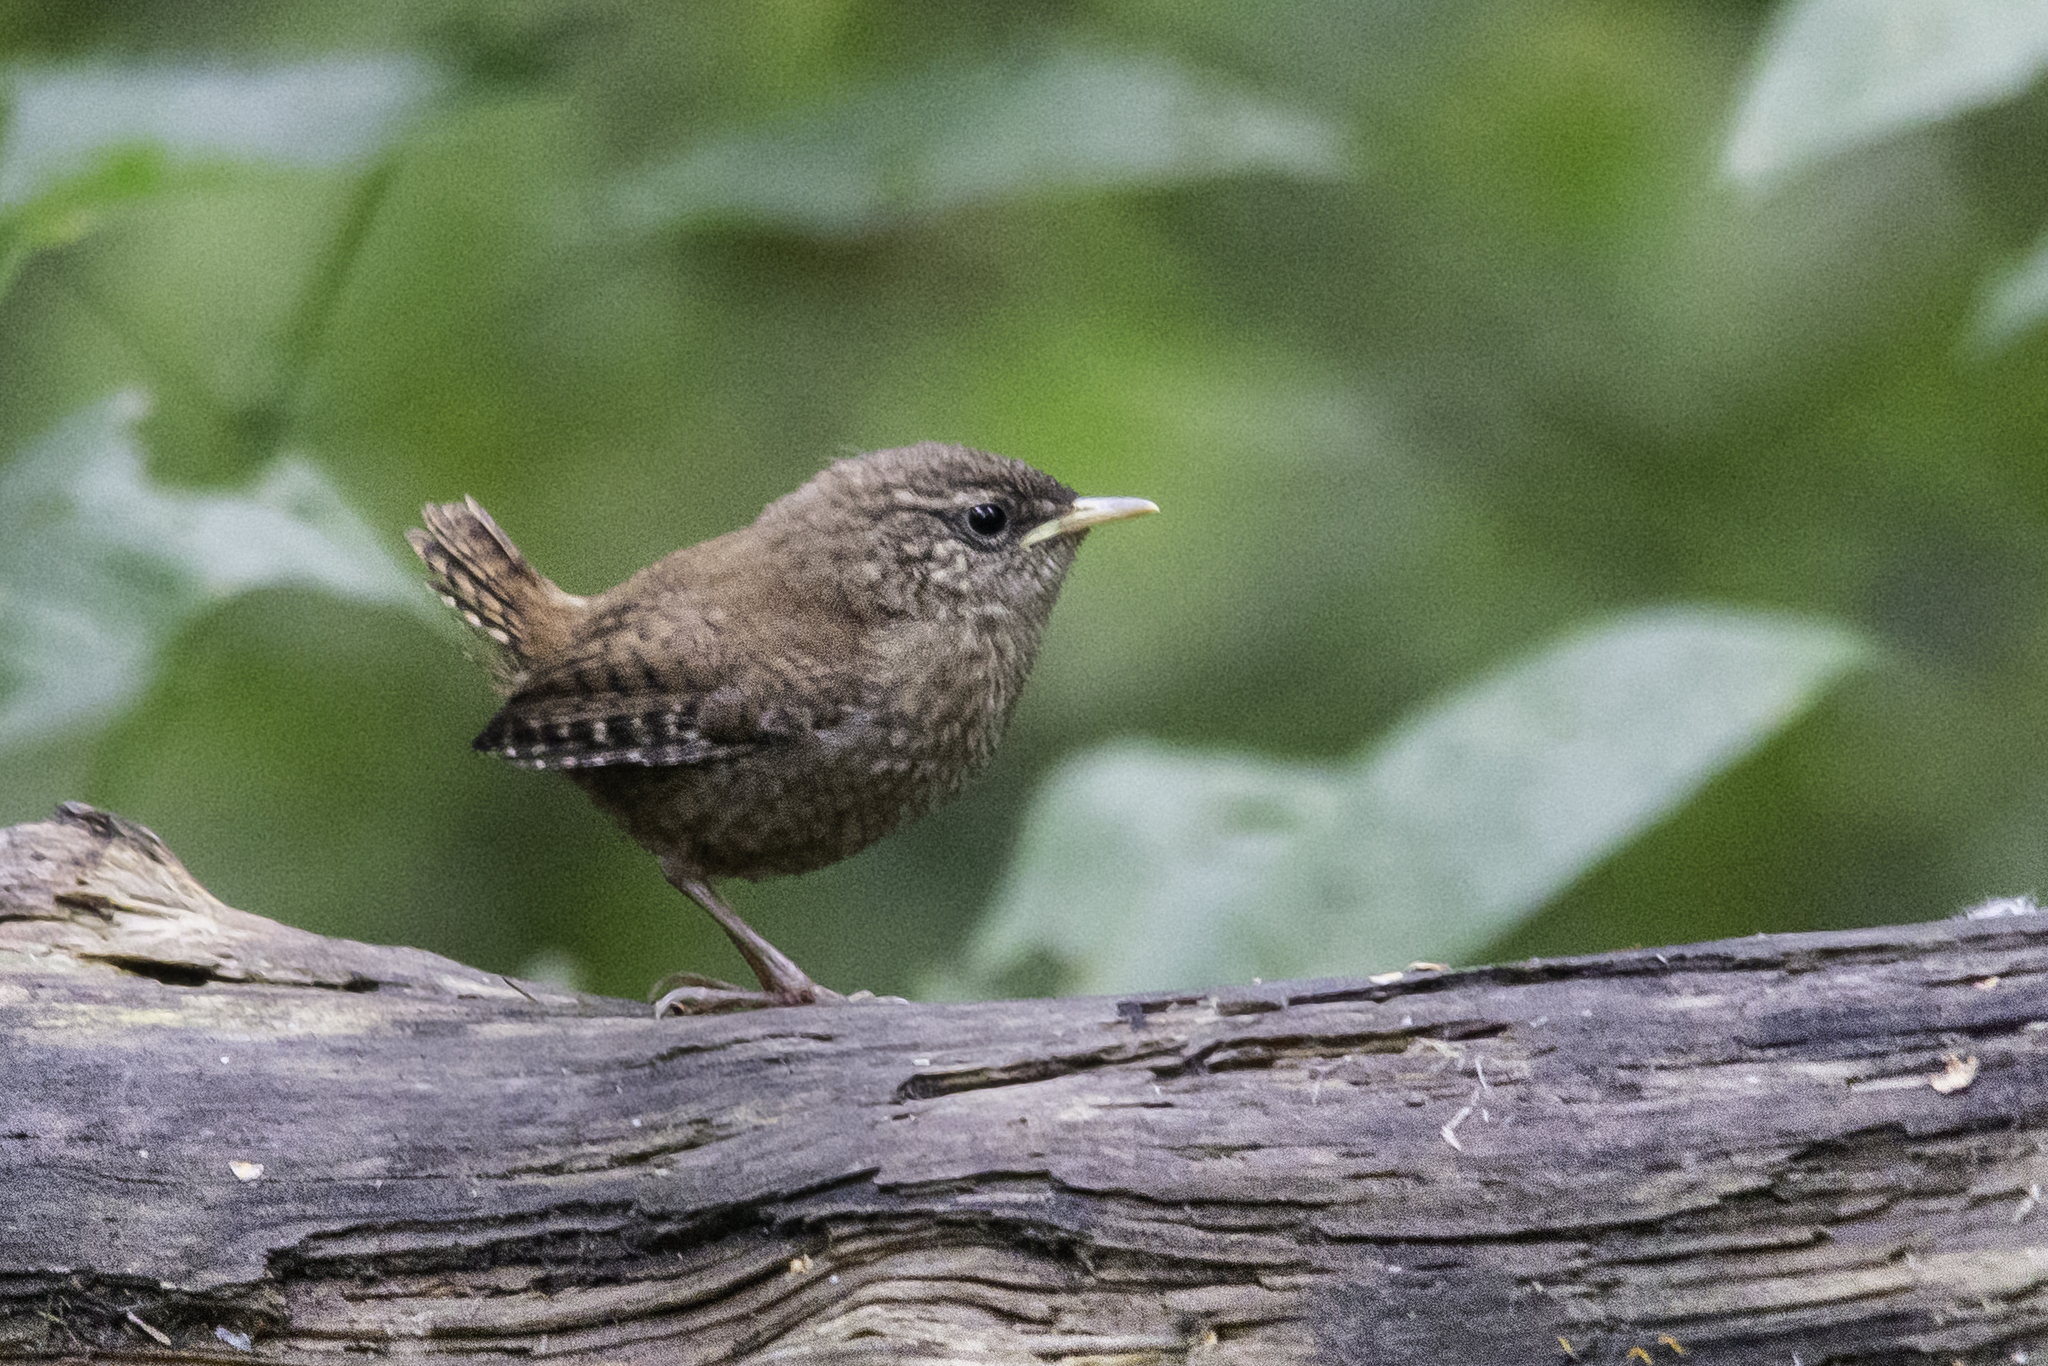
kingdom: Animalia
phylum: Chordata
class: Aves
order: Passeriformes
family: Troglodytidae
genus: Troglodytes
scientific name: Troglodytes troglodytes
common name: Eurasian wren
